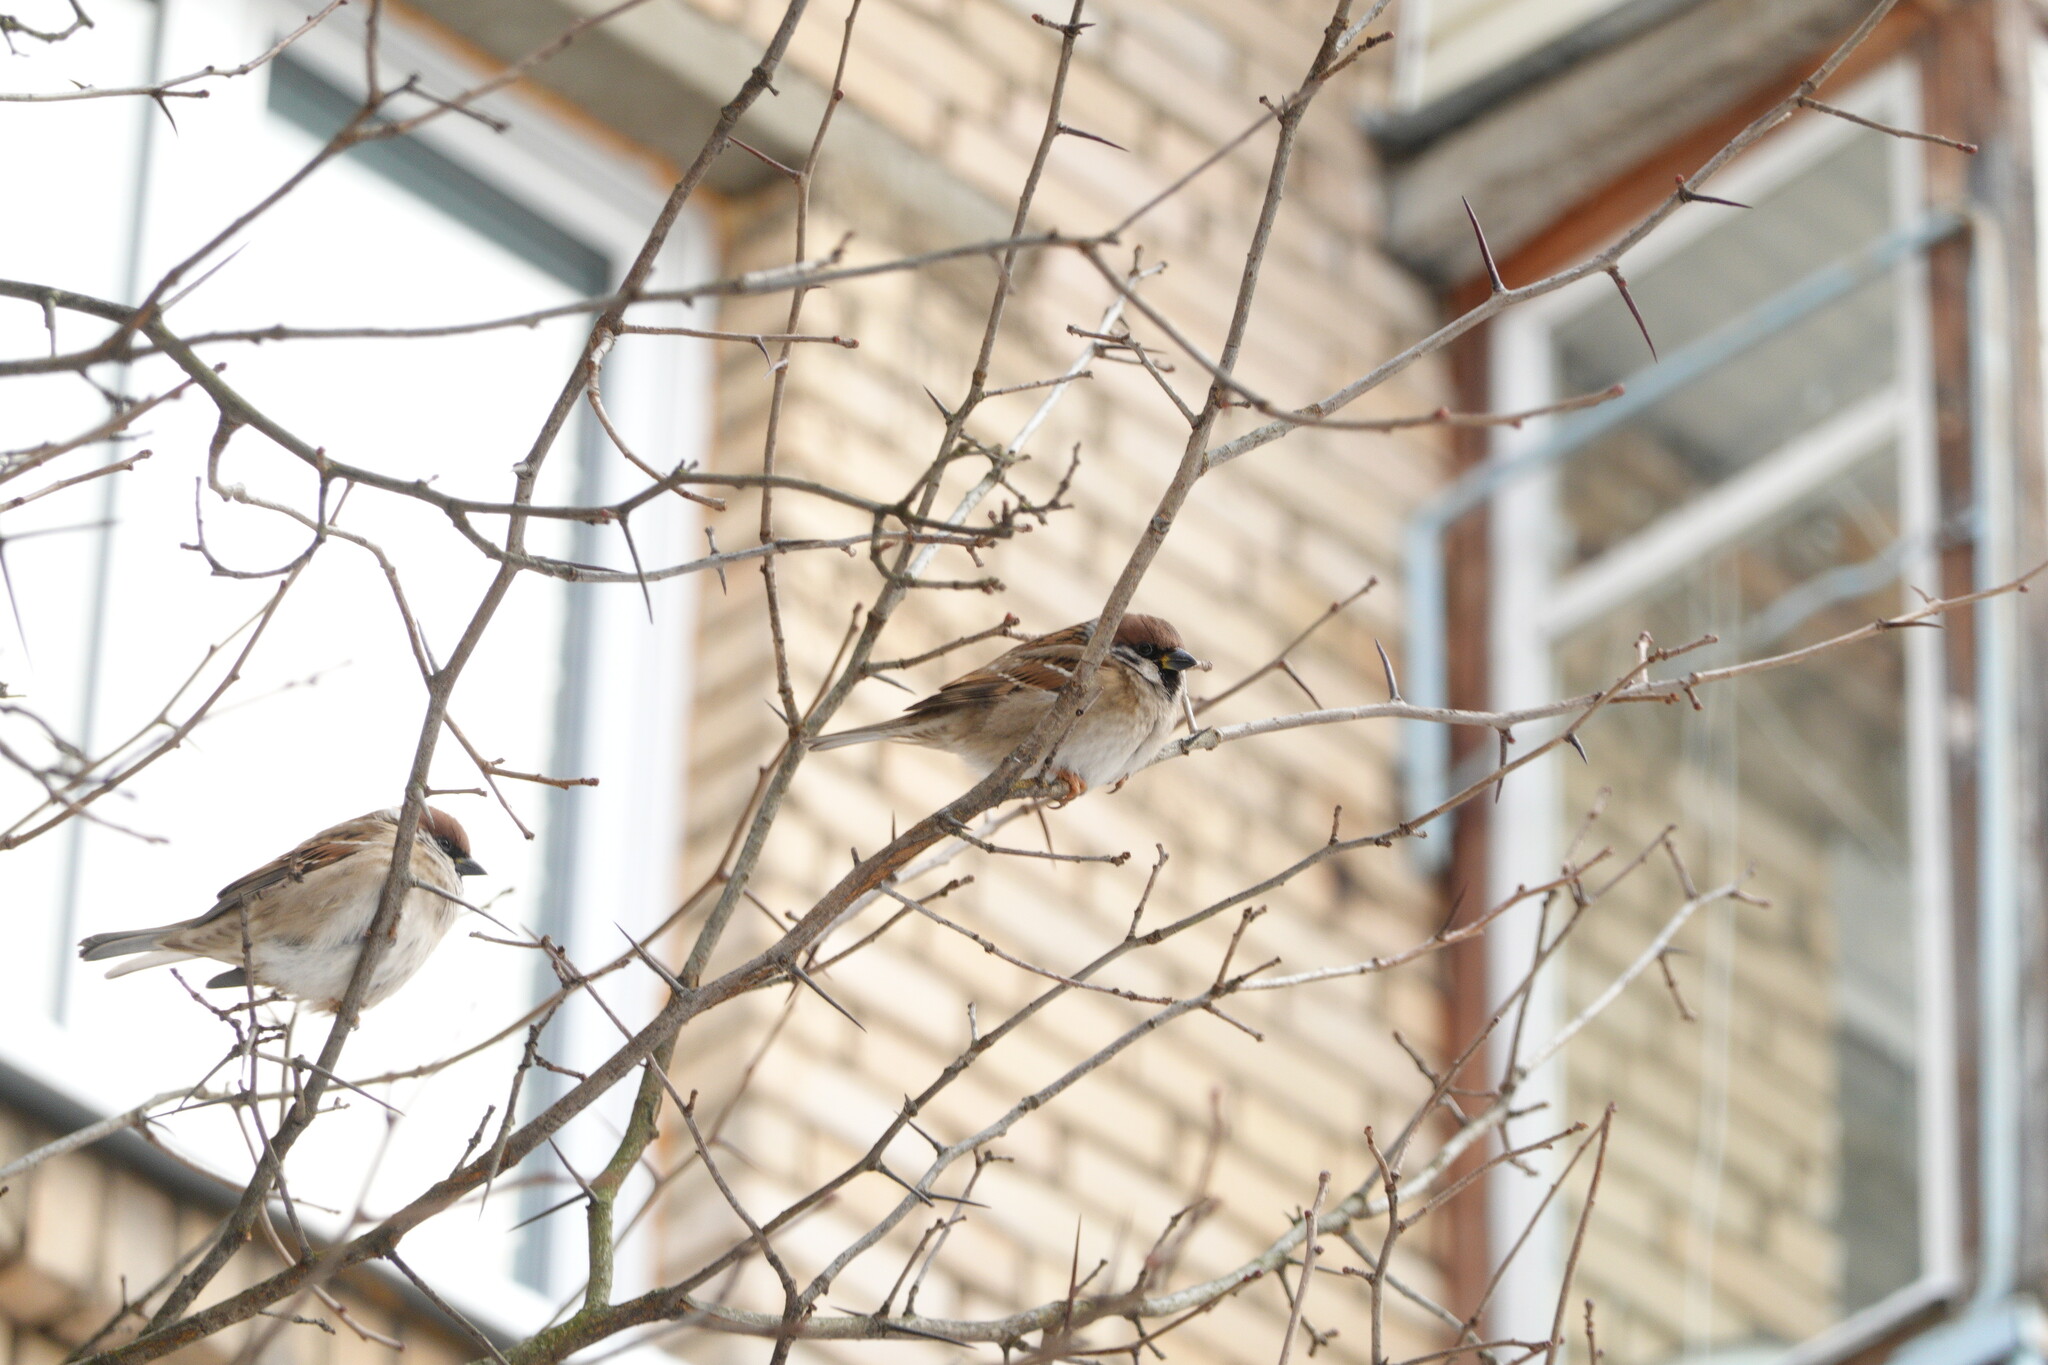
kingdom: Animalia
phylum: Chordata
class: Aves
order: Passeriformes
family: Passeridae
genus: Passer
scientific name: Passer montanus
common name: Eurasian tree sparrow
